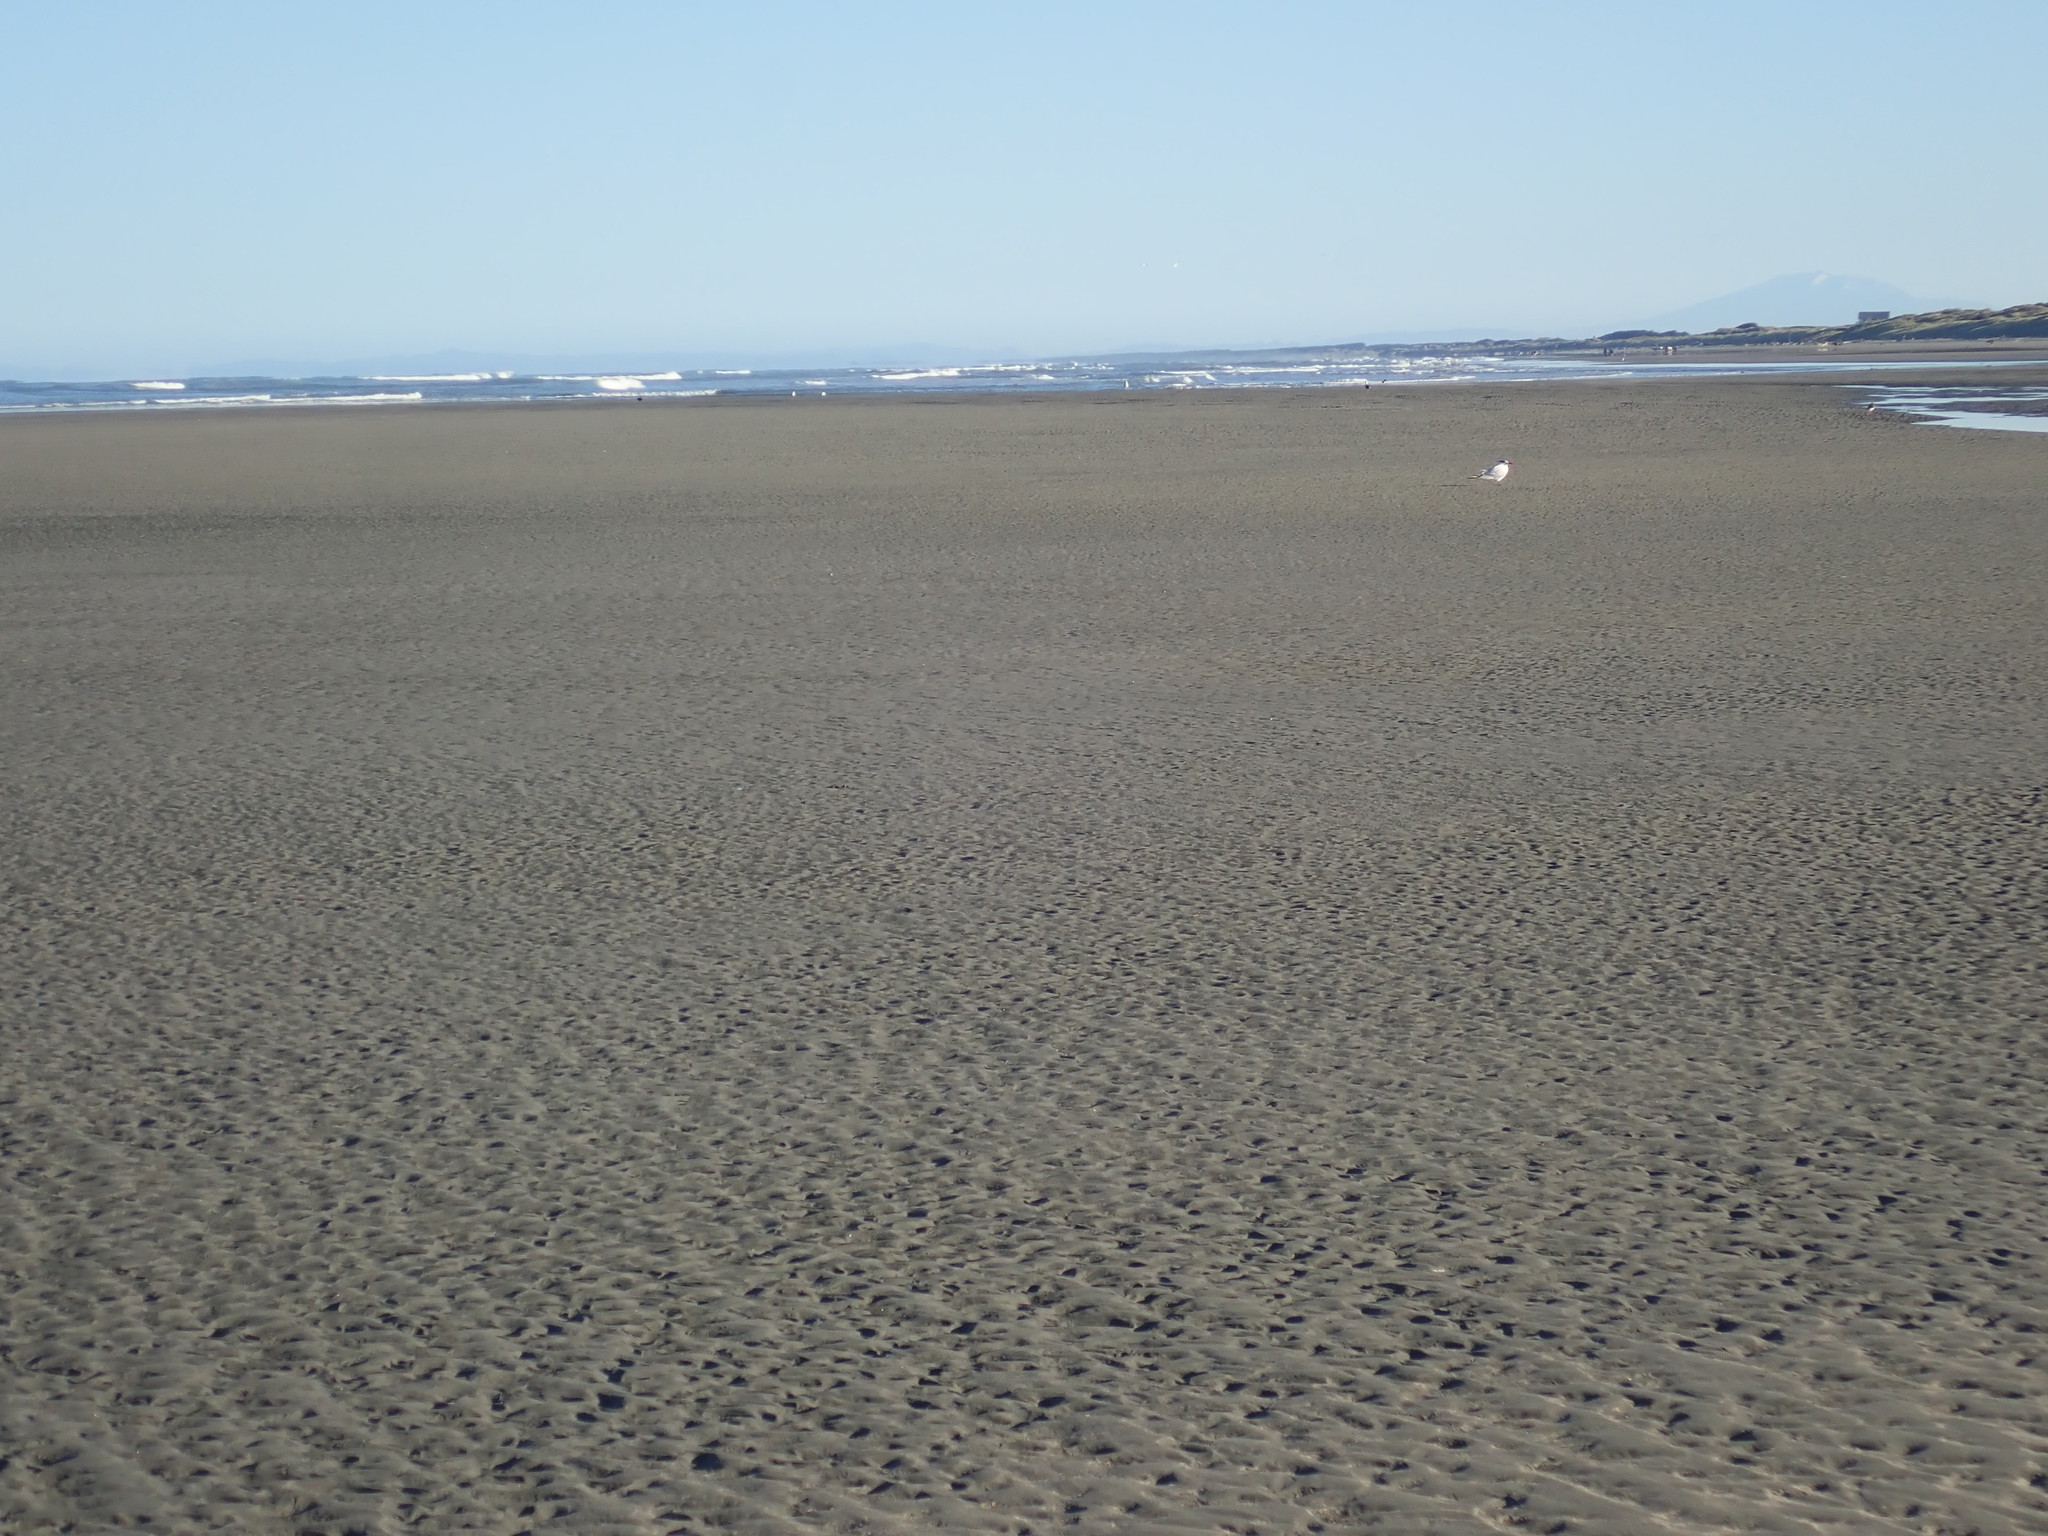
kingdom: Animalia
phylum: Chordata
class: Aves
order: Charadriiformes
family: Laridae
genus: Hydroprogne
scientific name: Hydroprogne caspia
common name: Caspian tern
